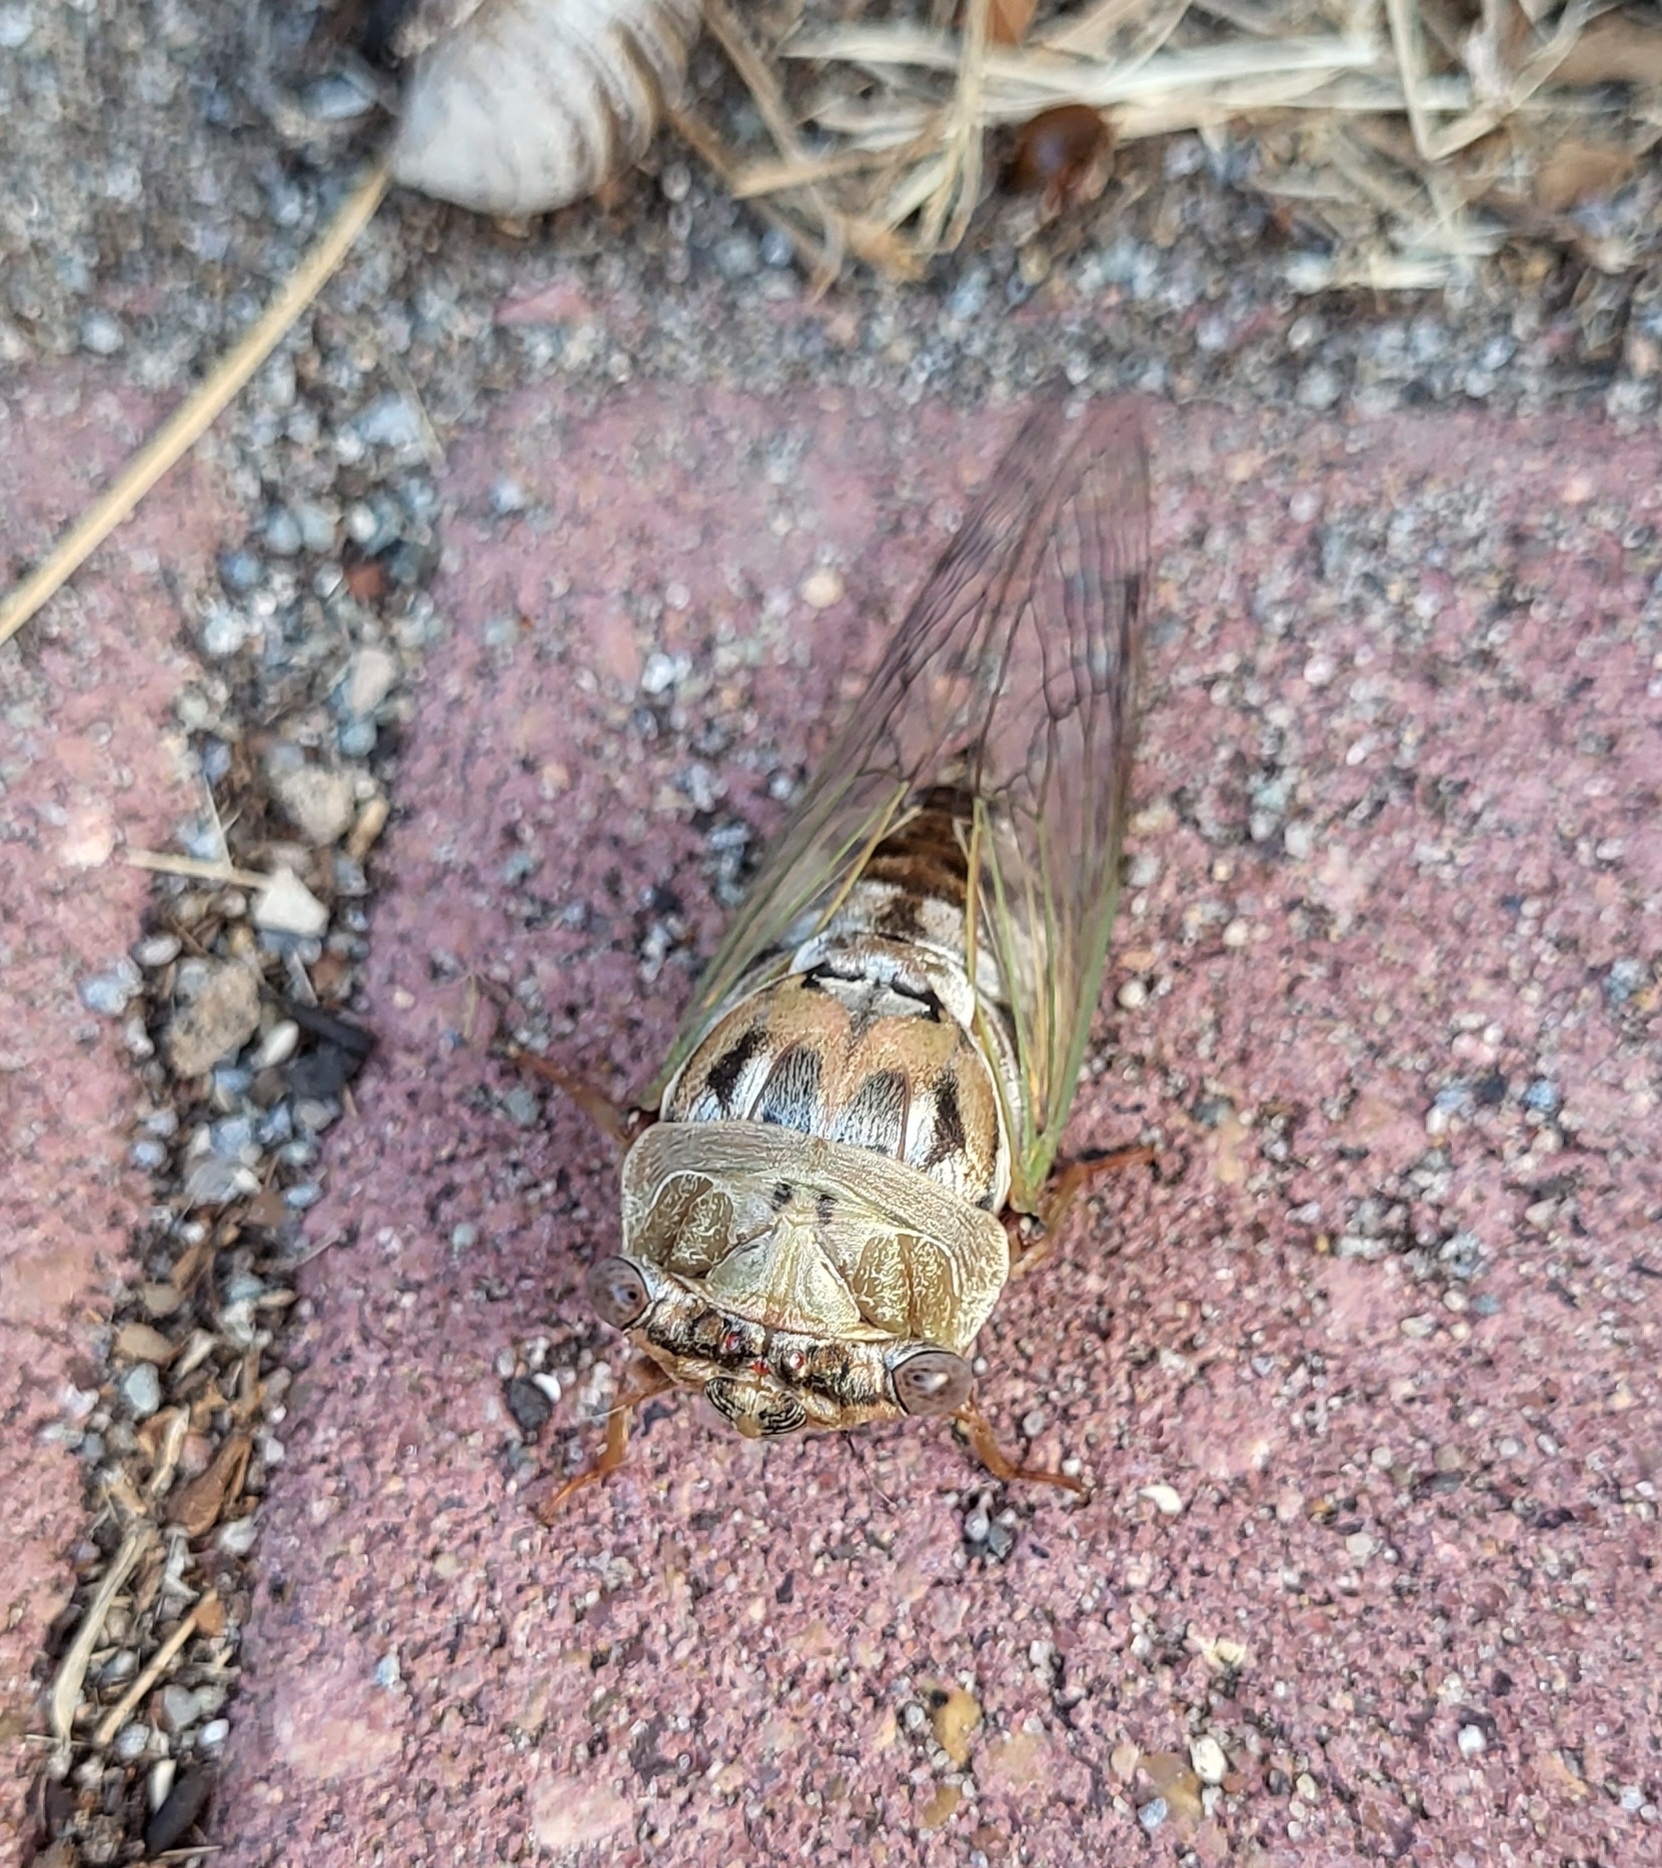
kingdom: Animalia
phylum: Arthropoda
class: Insecta
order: Hemiptera
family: Cicadidae
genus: Megatibicen
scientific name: Megatibicen resh
